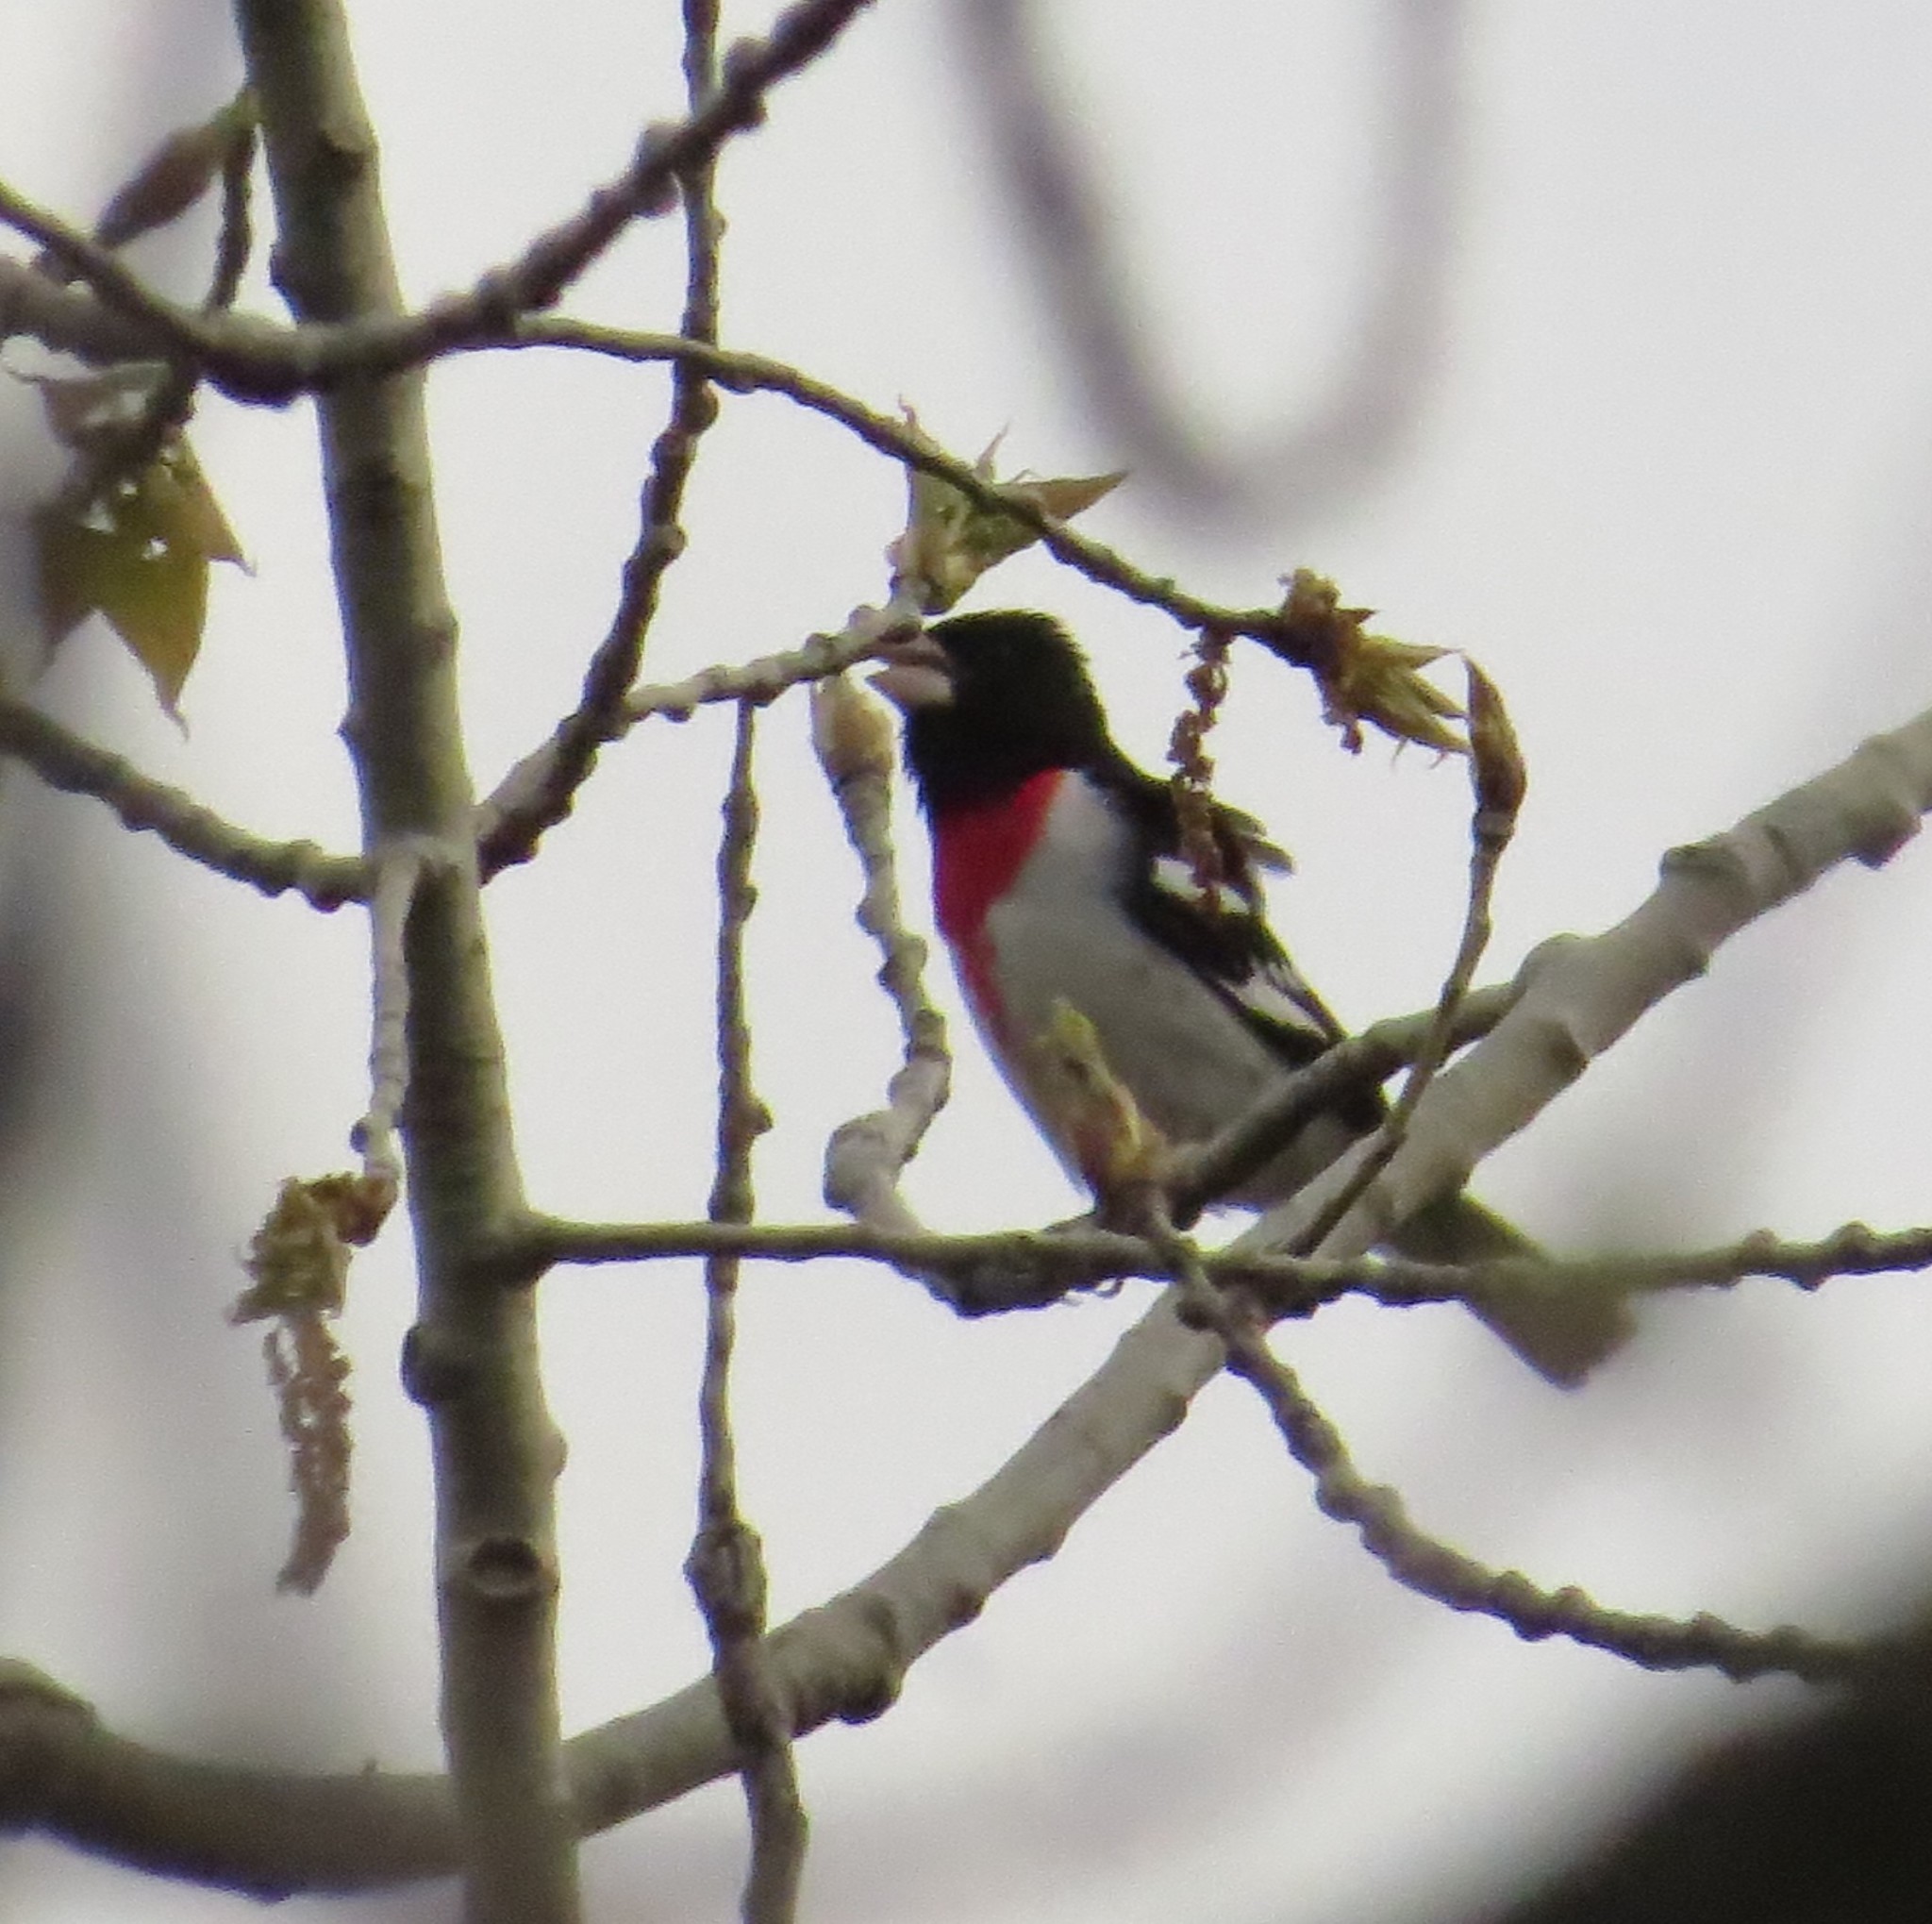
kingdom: Animalia
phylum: Chordata
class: Aves
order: Passeriformes
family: Cardinalidae
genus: Pheucticus
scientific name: Pheucticus ludovicianus
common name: Rose-breasted grosbeak
